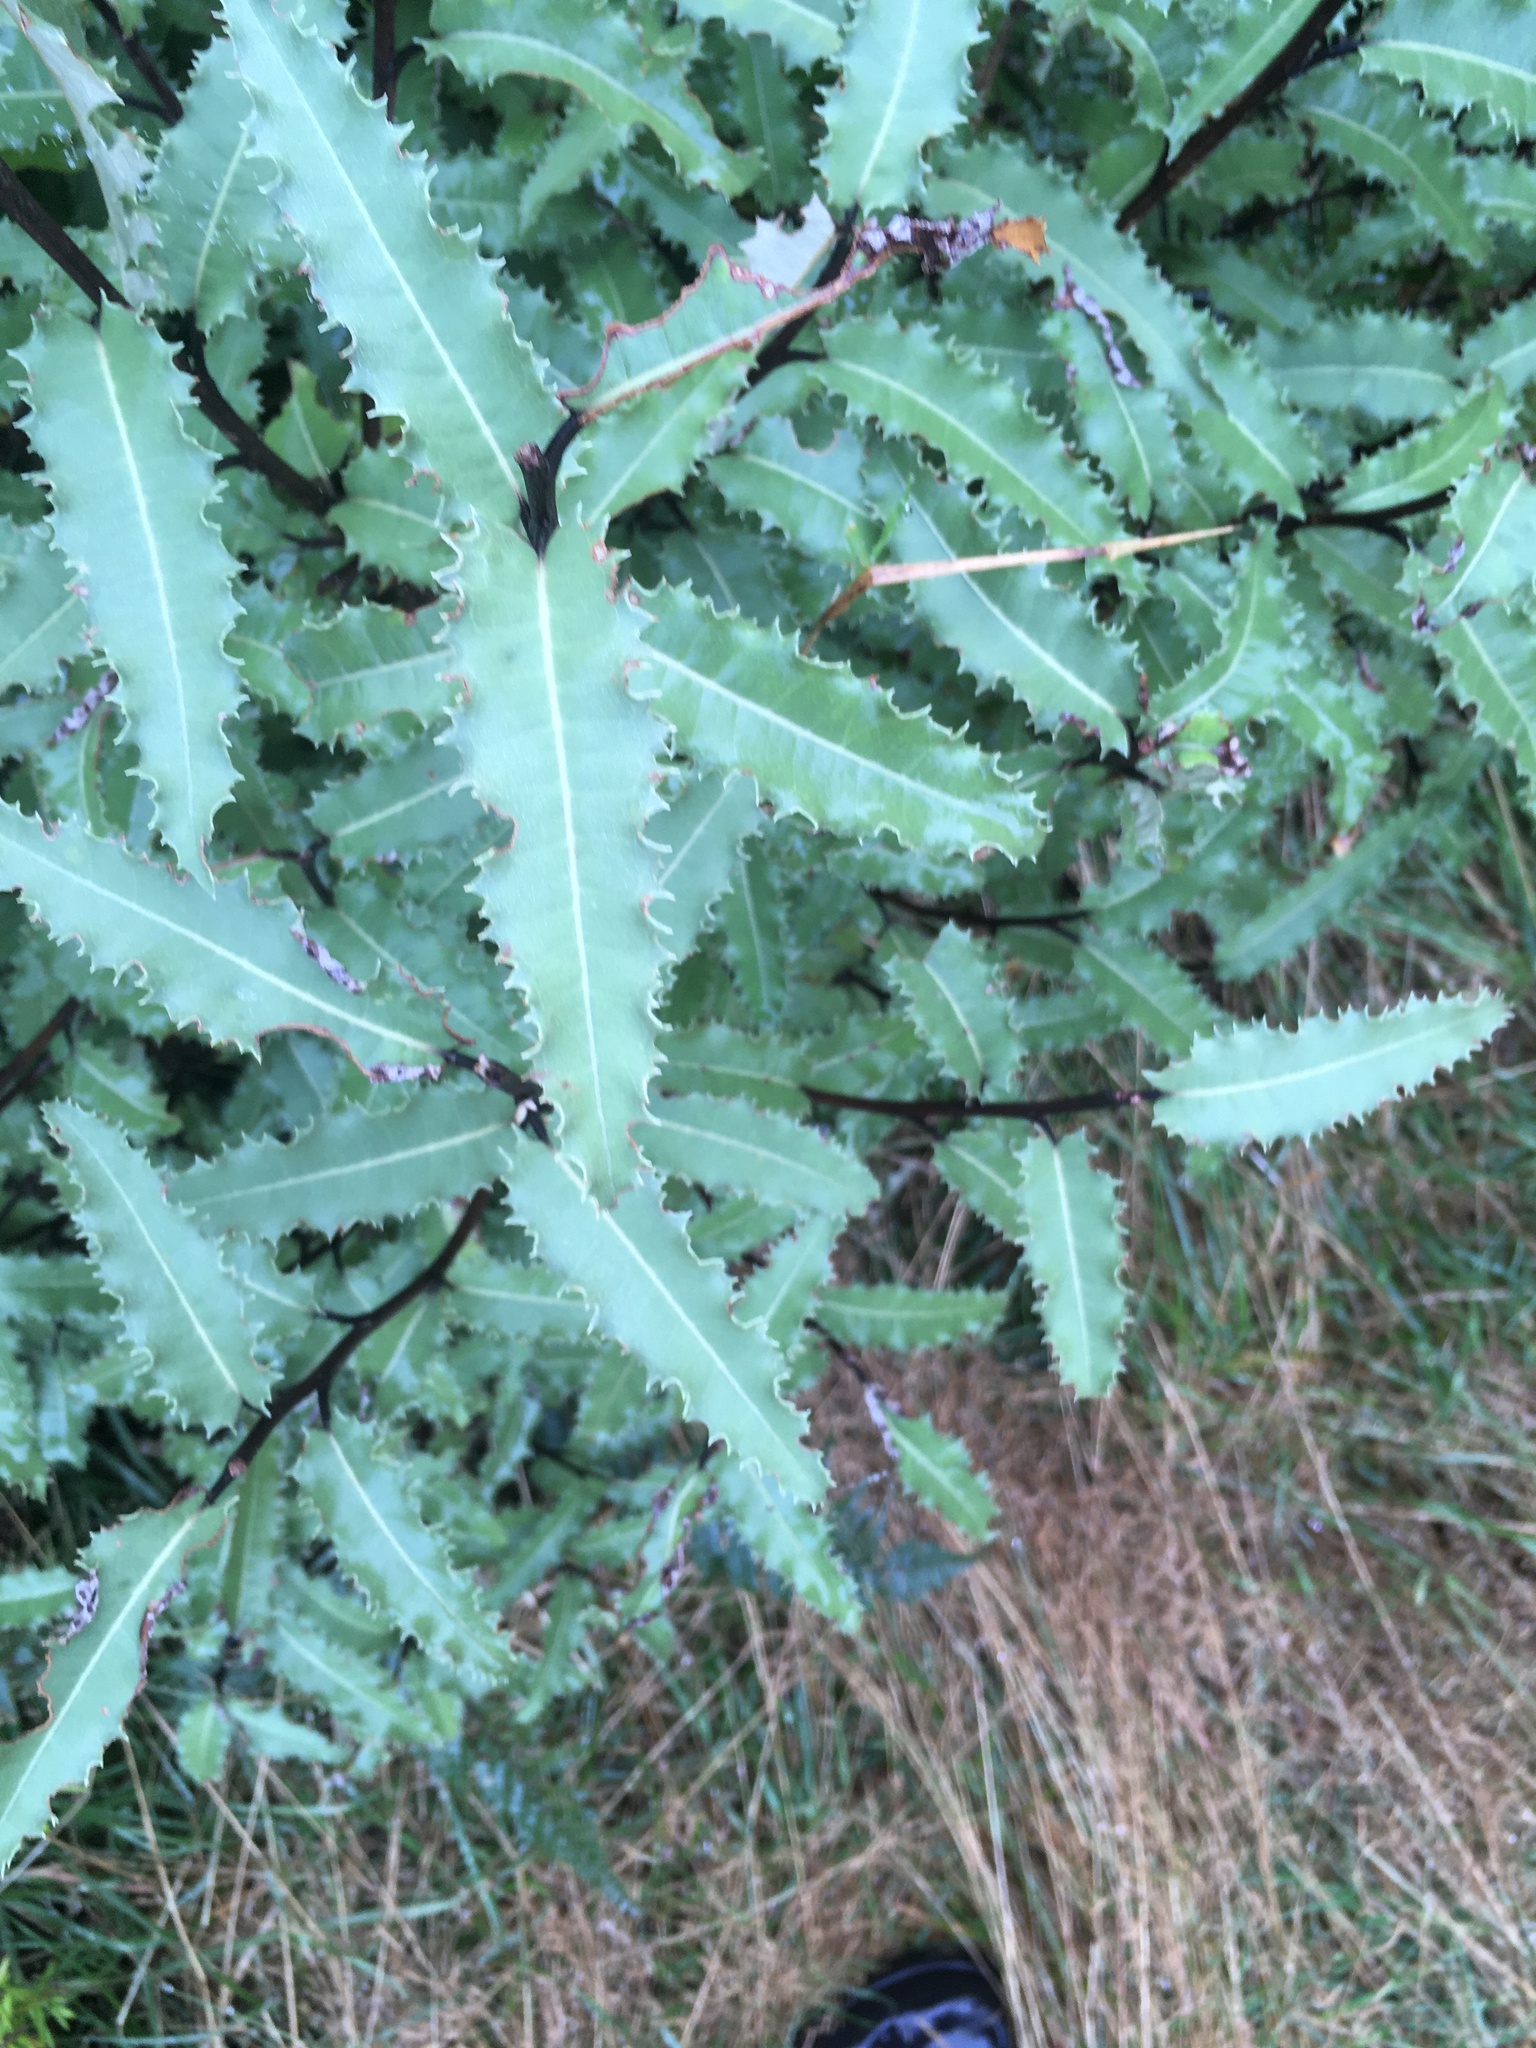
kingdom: Plantae
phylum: Tracheophyta
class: Magnoliopsida
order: Asterales
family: Asteraceae
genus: Olearia
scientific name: Olearia ilicifolia
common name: Maori-holly
